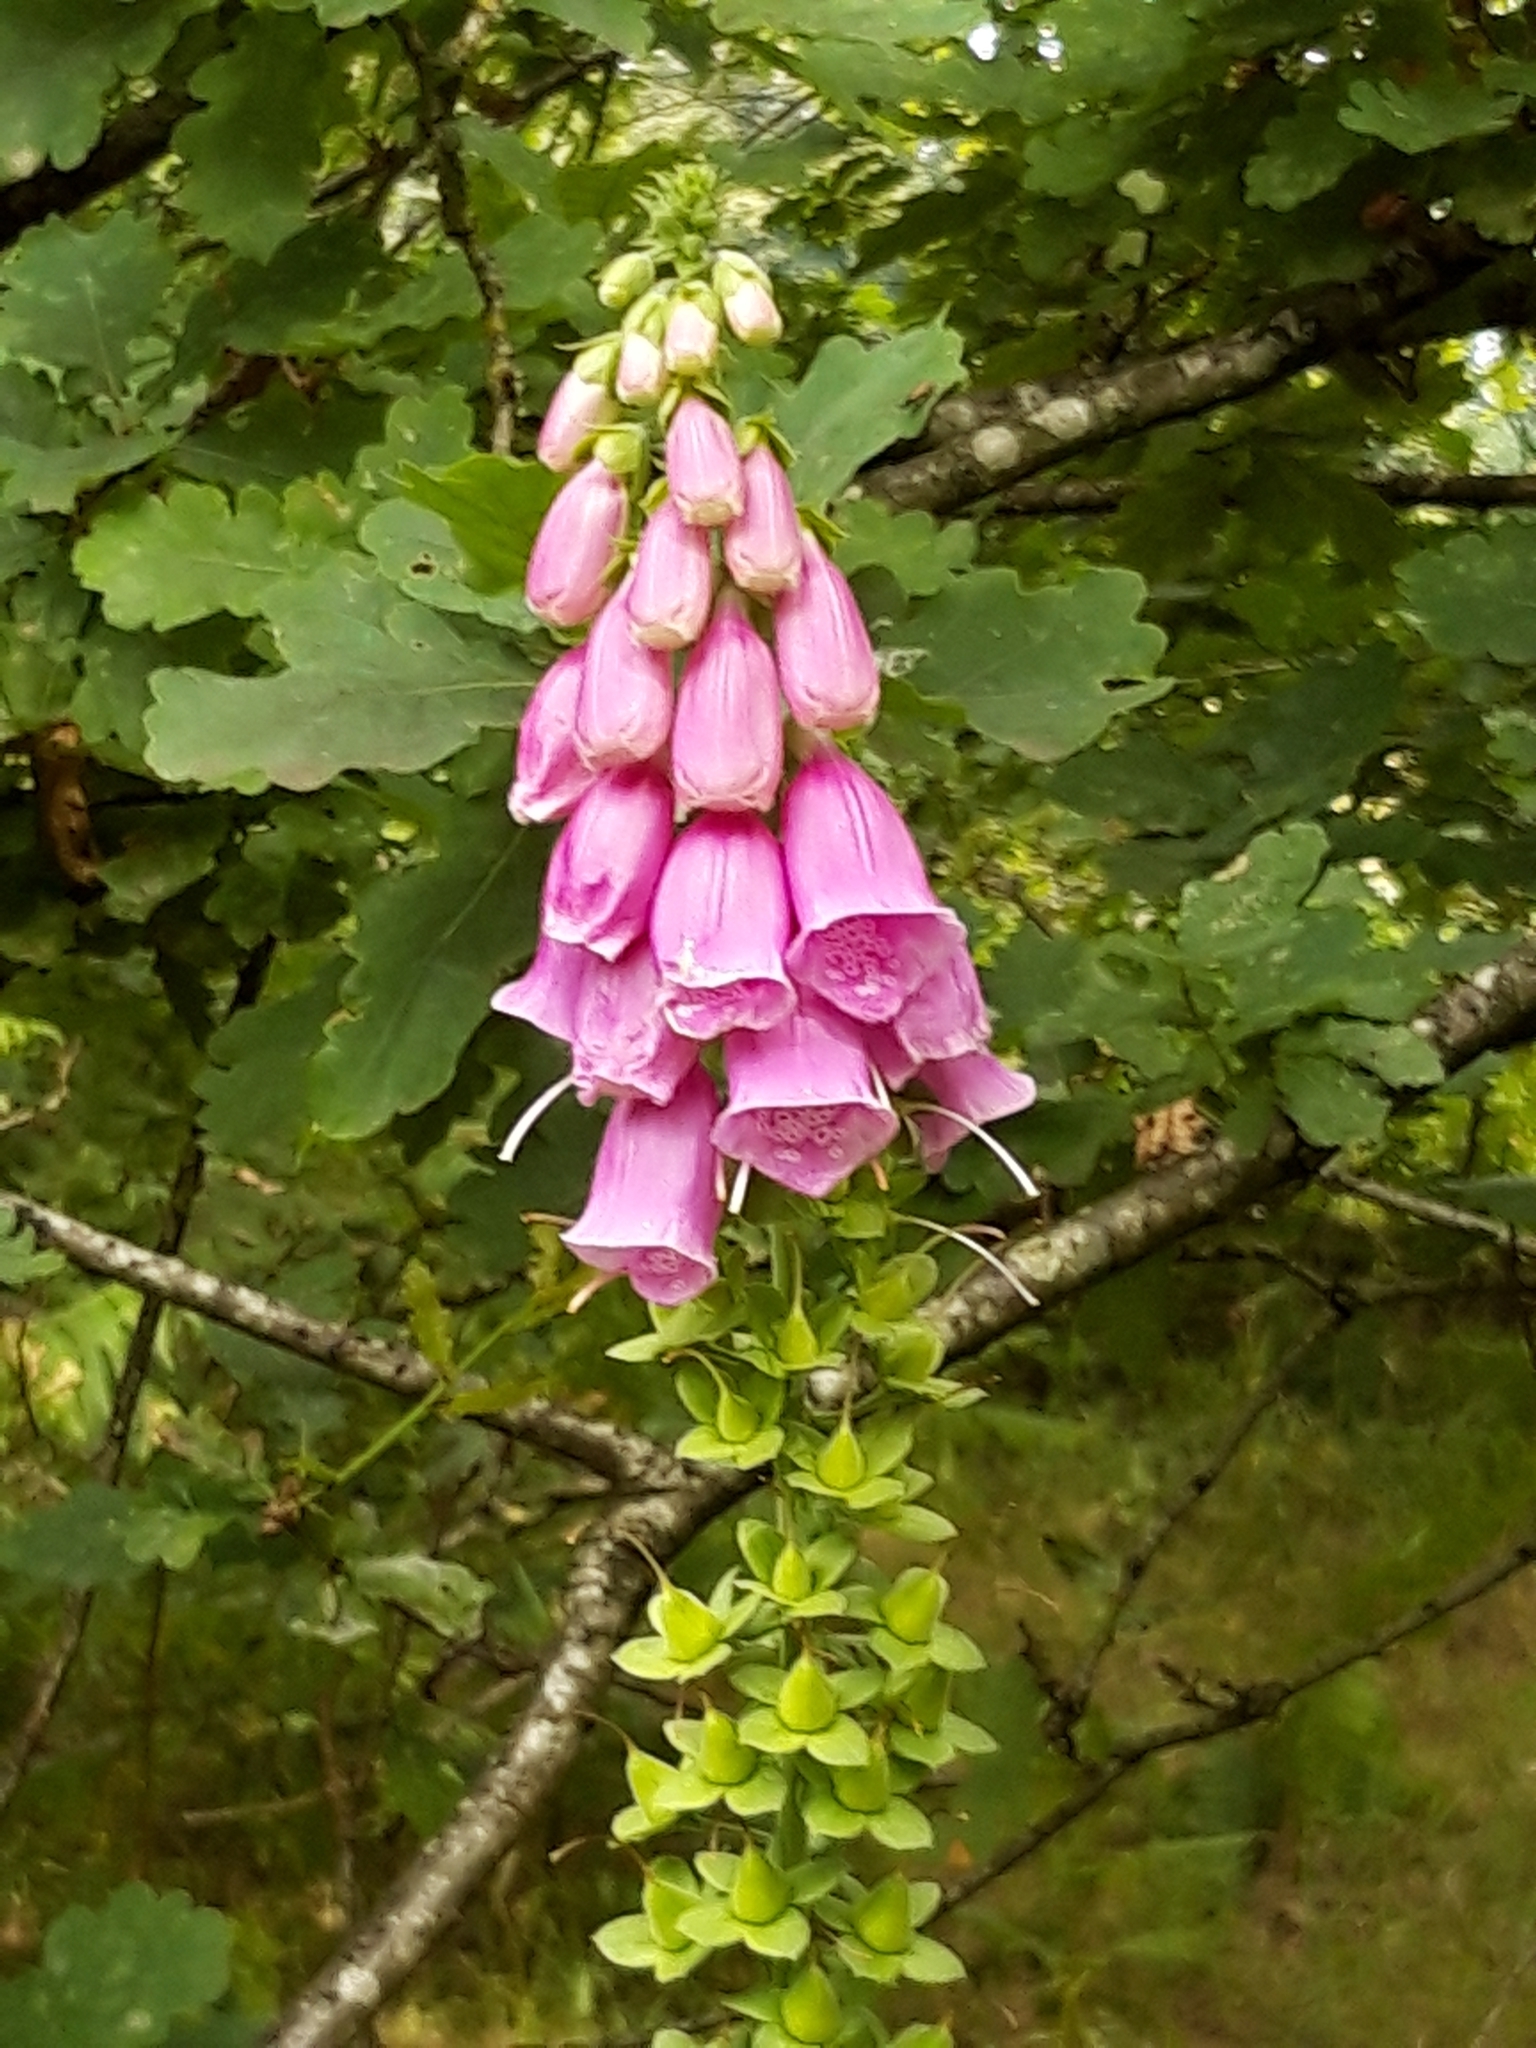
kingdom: Plantae
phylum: Tracheophyta
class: Magnoliopsida
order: Lamiales
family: Plantaginaceae
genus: Digitalis
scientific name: Digitalis purpurea
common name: Foxglove
